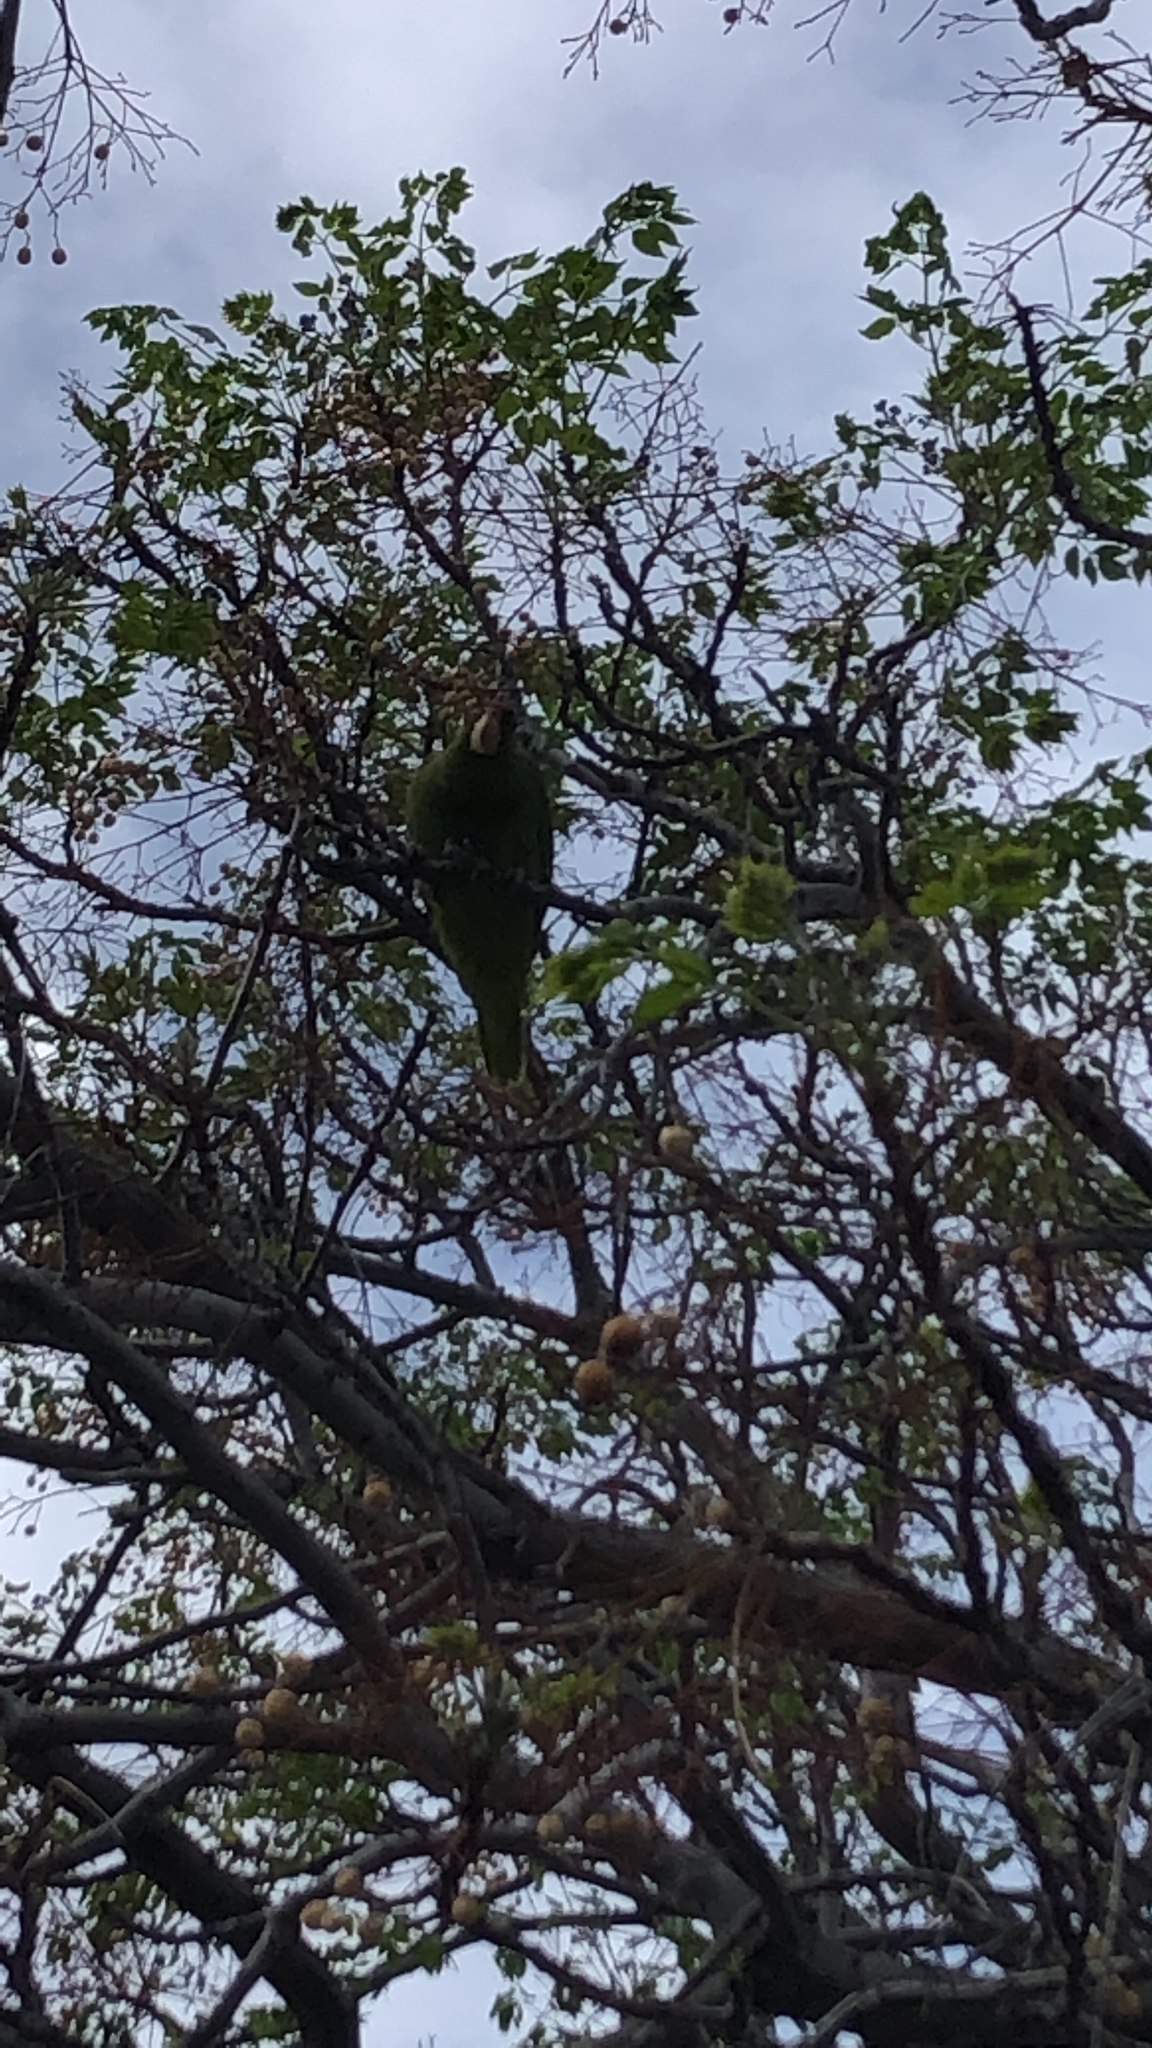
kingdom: Animalia
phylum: Chordata
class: Aves
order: Psittaciformes
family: Psittacidae
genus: Amazona
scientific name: Amazona
